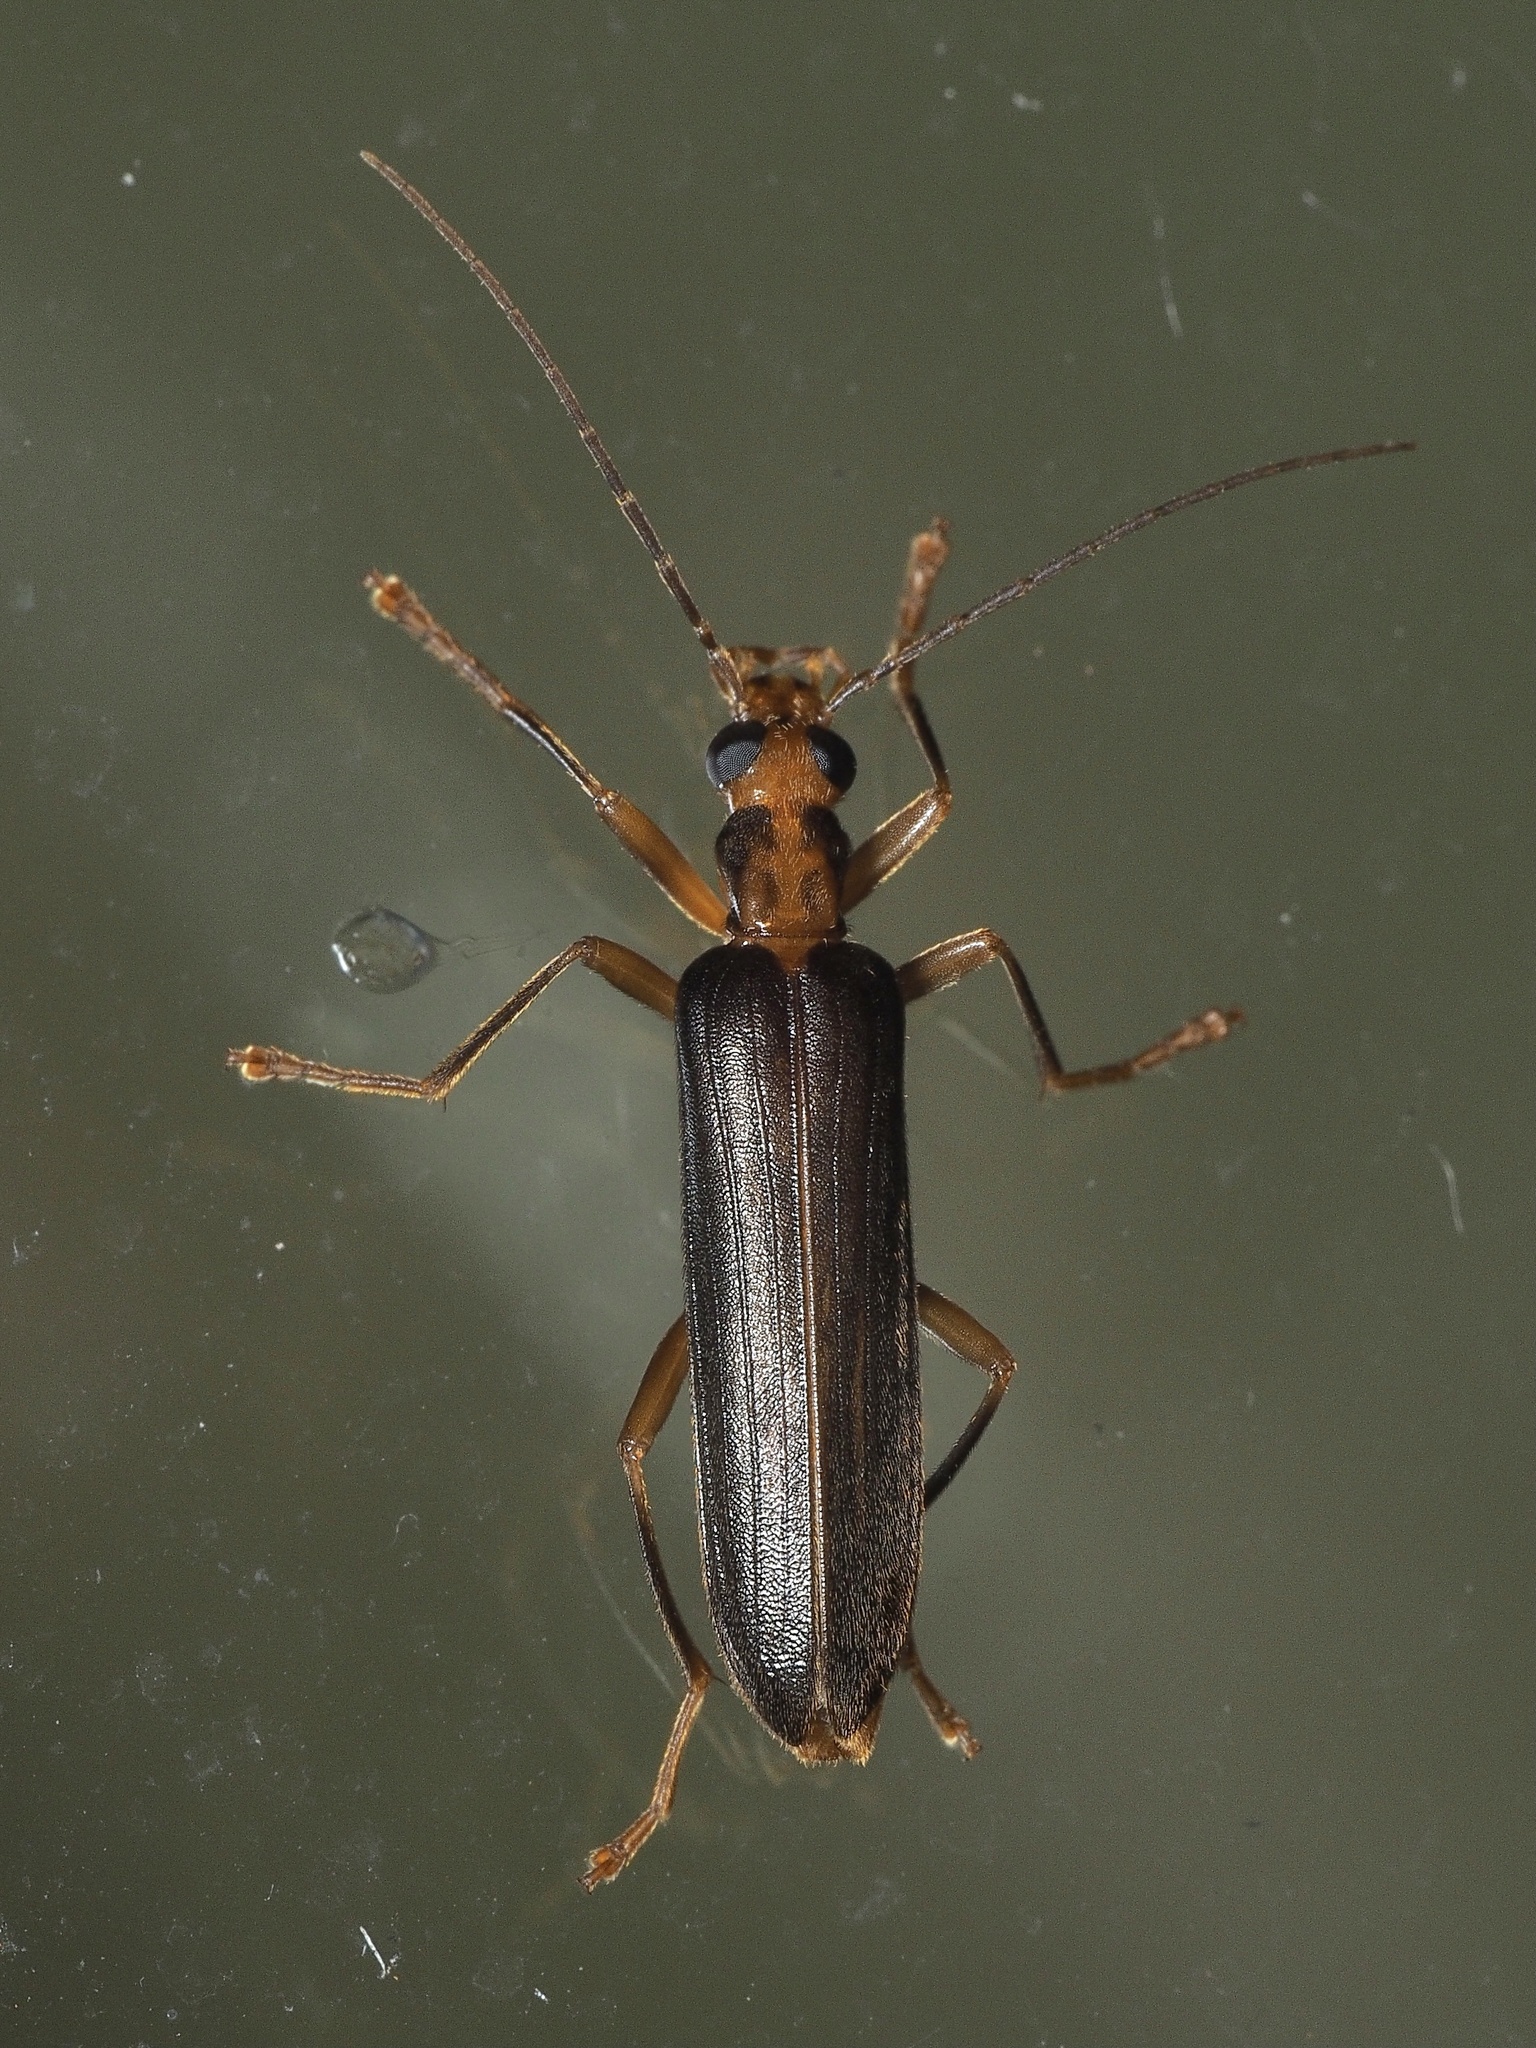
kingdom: Animalia
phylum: Arthropoda
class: Insecta
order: Coleoptera
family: Oedemeridae
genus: Nacerdes
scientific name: Nacerdes carniolica
